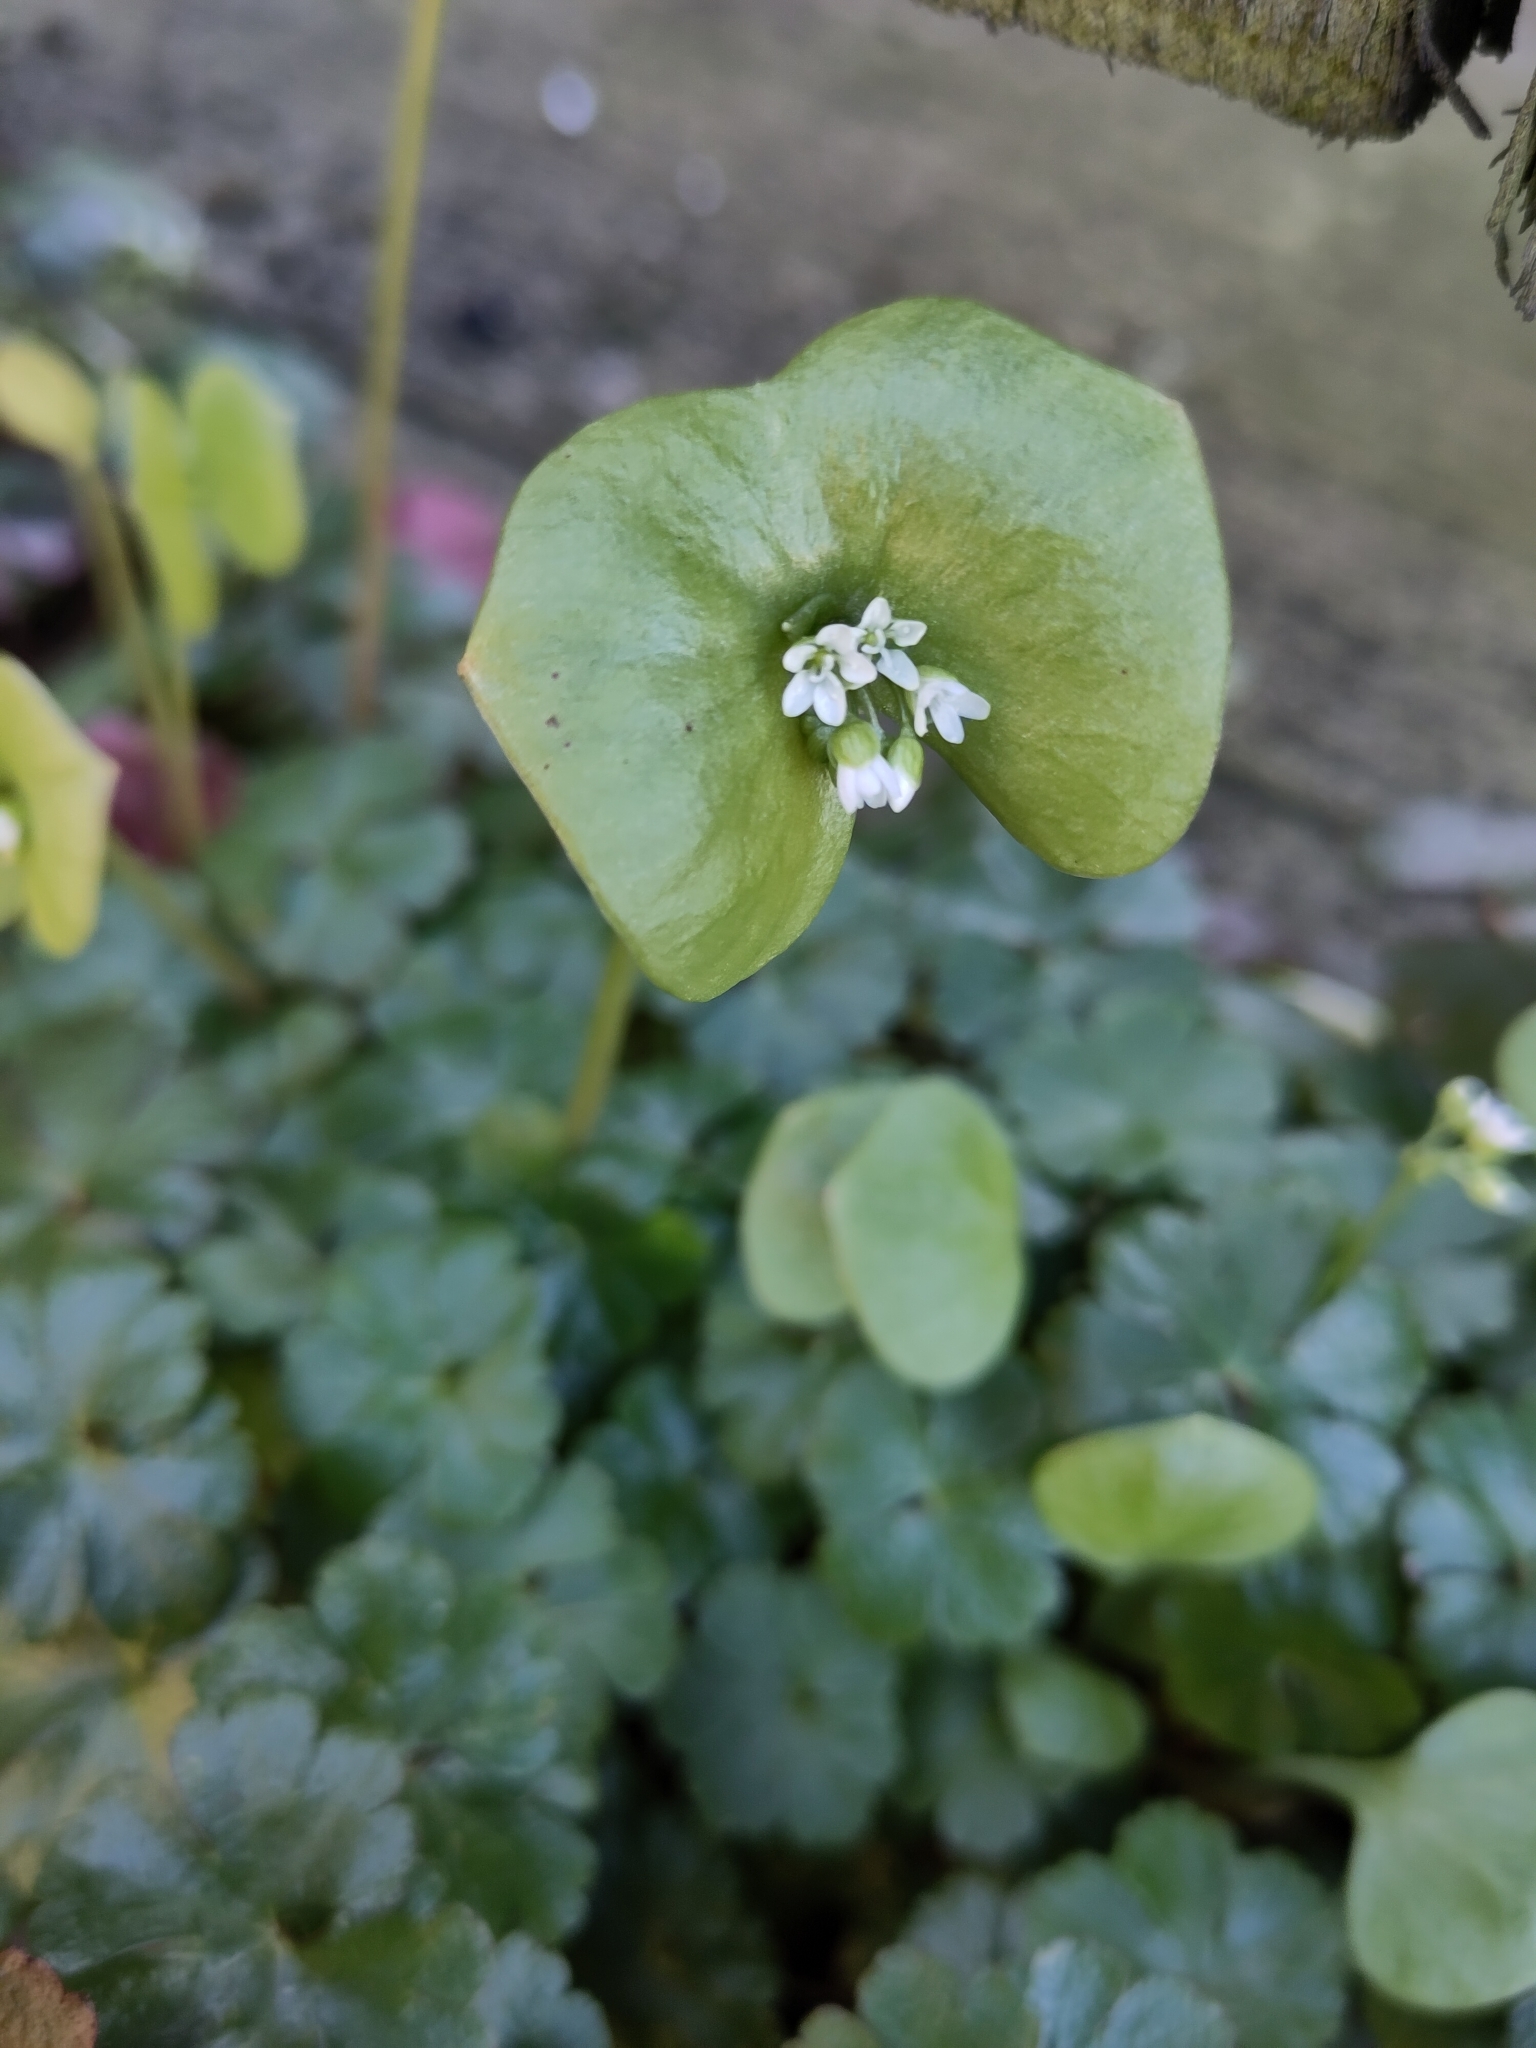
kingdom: Plantae
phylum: Tracheophyta
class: Magnoliopsida
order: Caryophyllales
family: Montiaceae
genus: Claytonia
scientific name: Claytonia perfoliata
